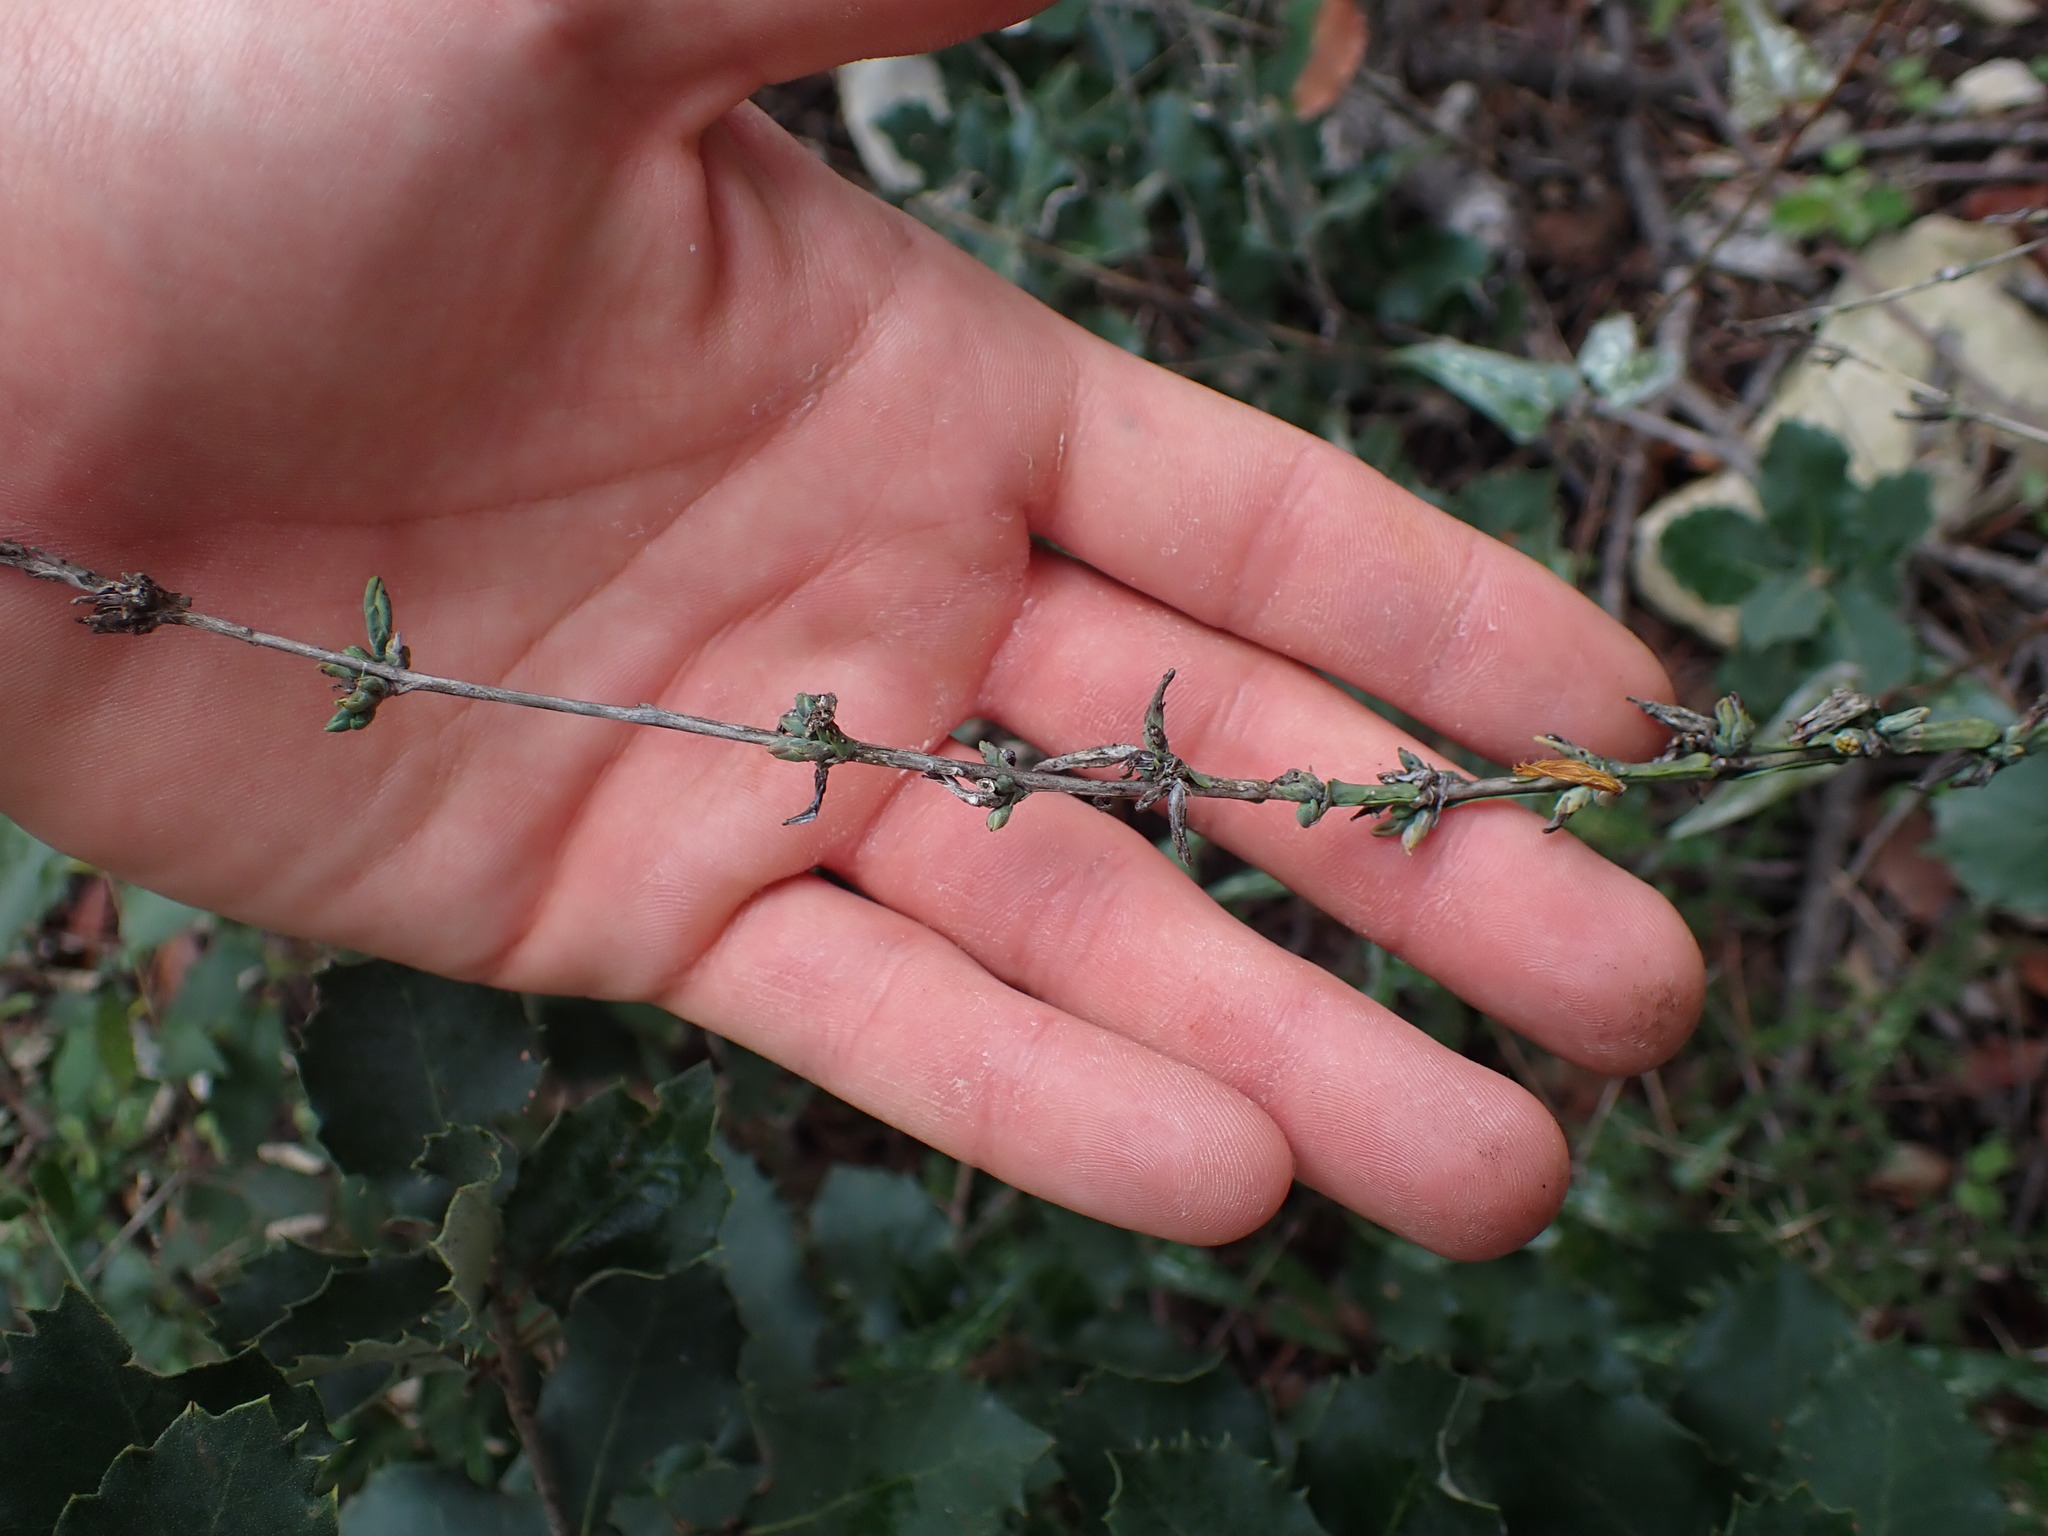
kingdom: Plantae
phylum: Tracheophyta
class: Magnoliopsida
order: Asterales
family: Asteraceae
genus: Lactuca
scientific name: Lactuca viminea
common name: Pliant lettuce
